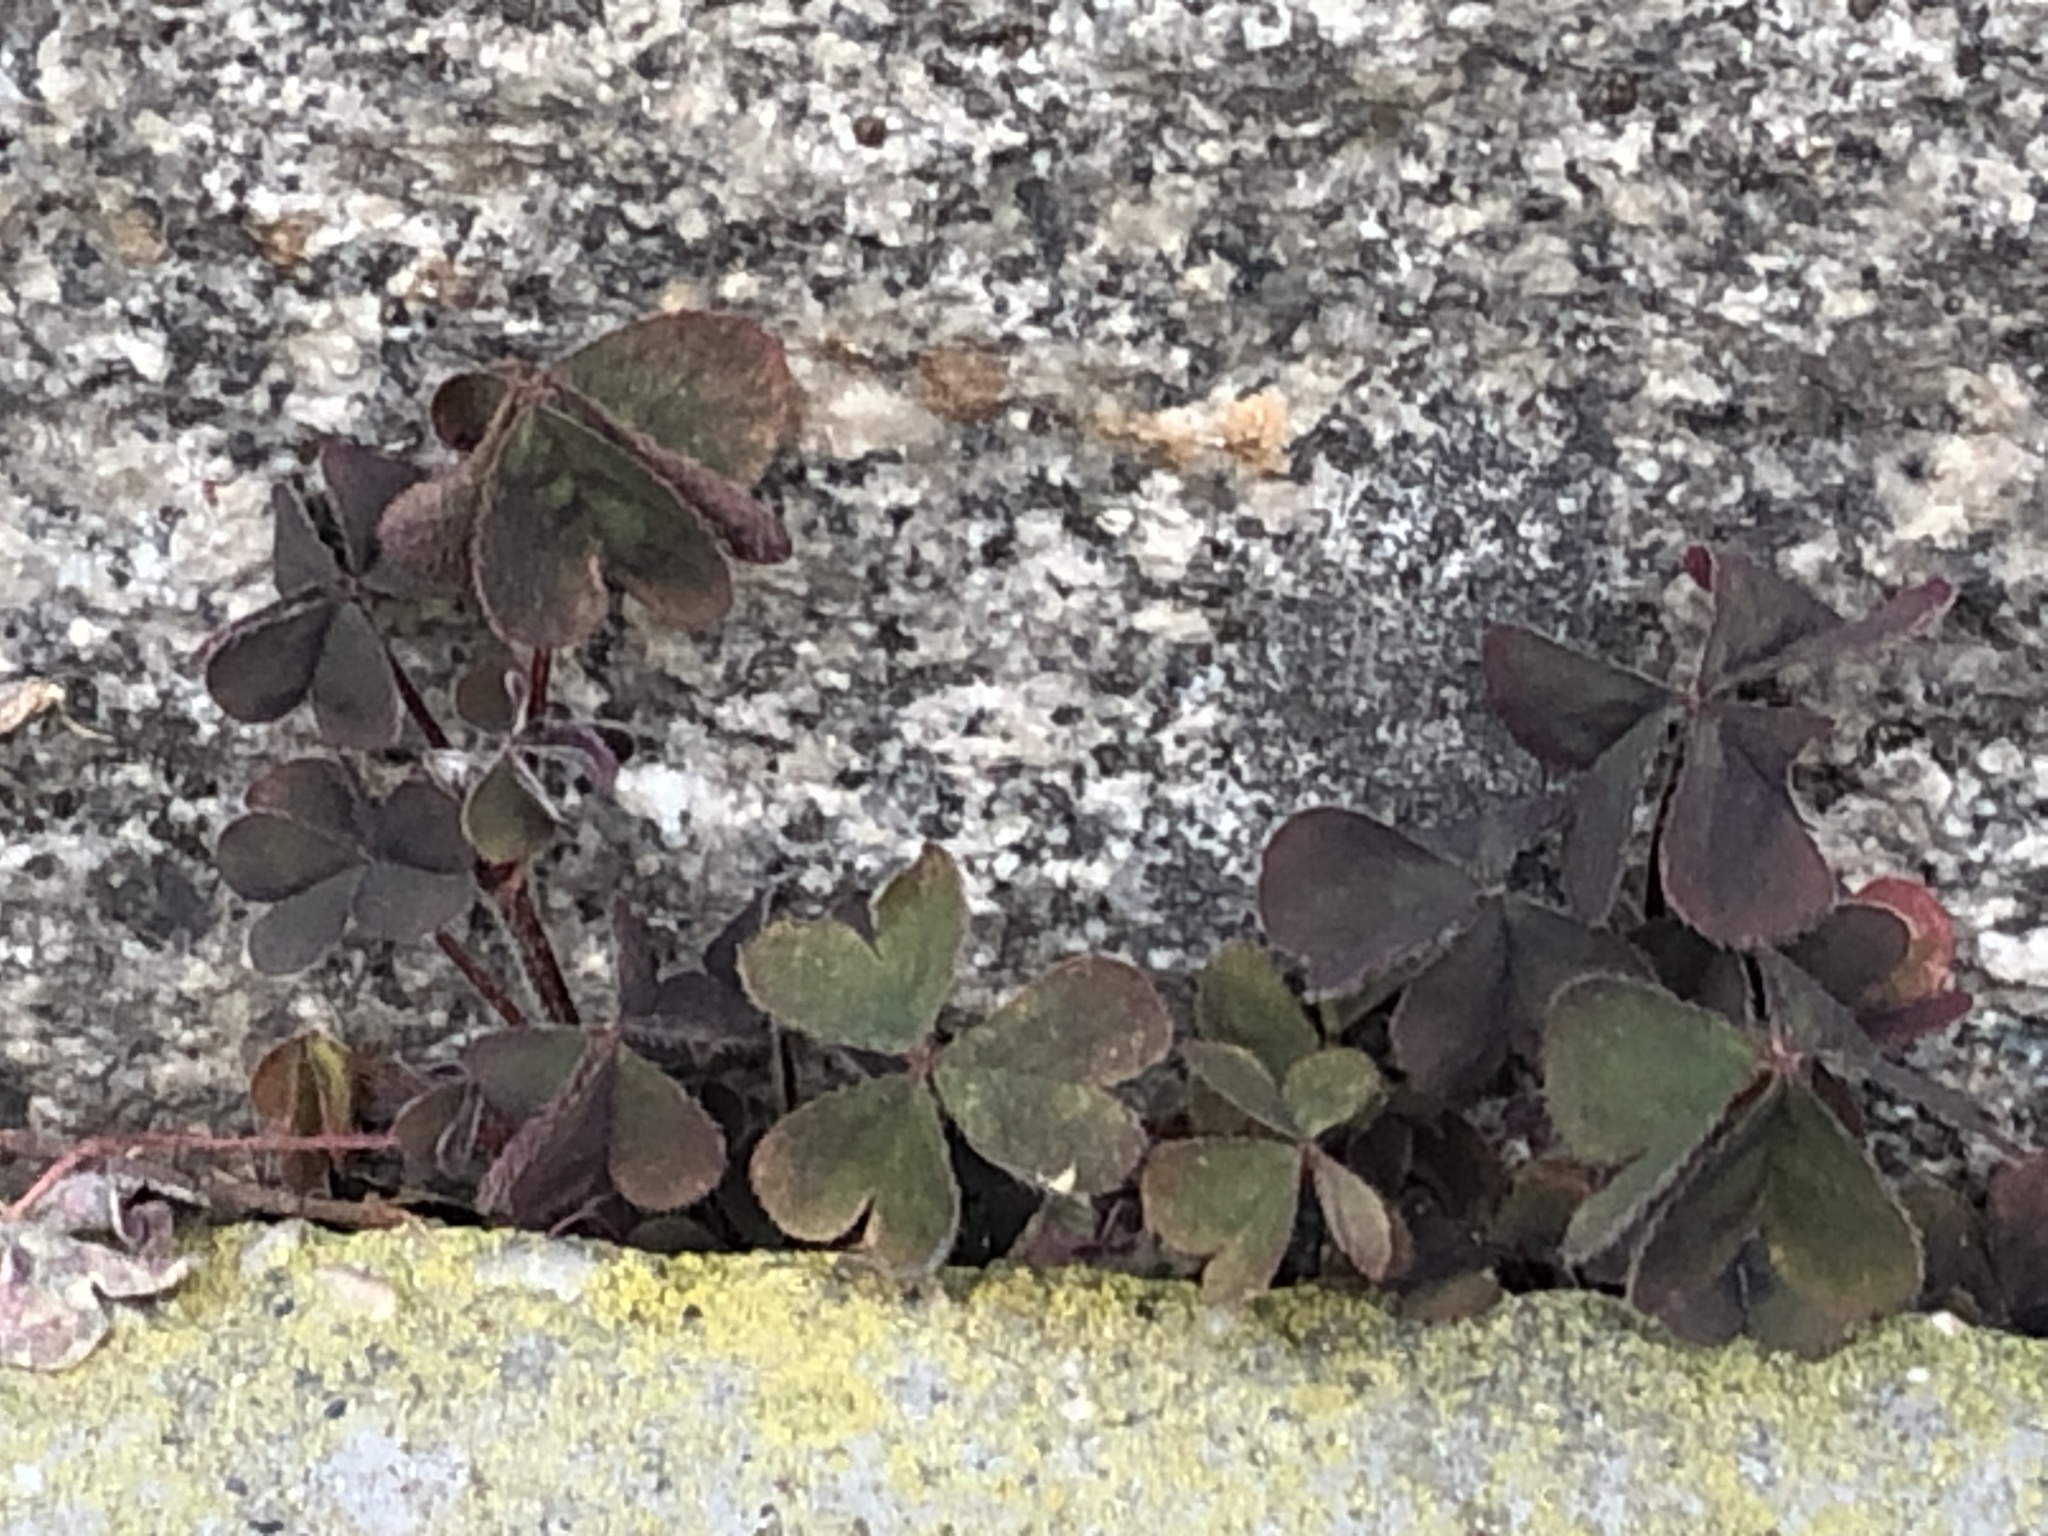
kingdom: Plantae
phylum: Tracheophyta
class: Magnoliopsida
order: Oxalidales
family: Oxalidaceae
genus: Oxalis
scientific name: Oxalis corniculata
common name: Procumbent yellow-sorrel
